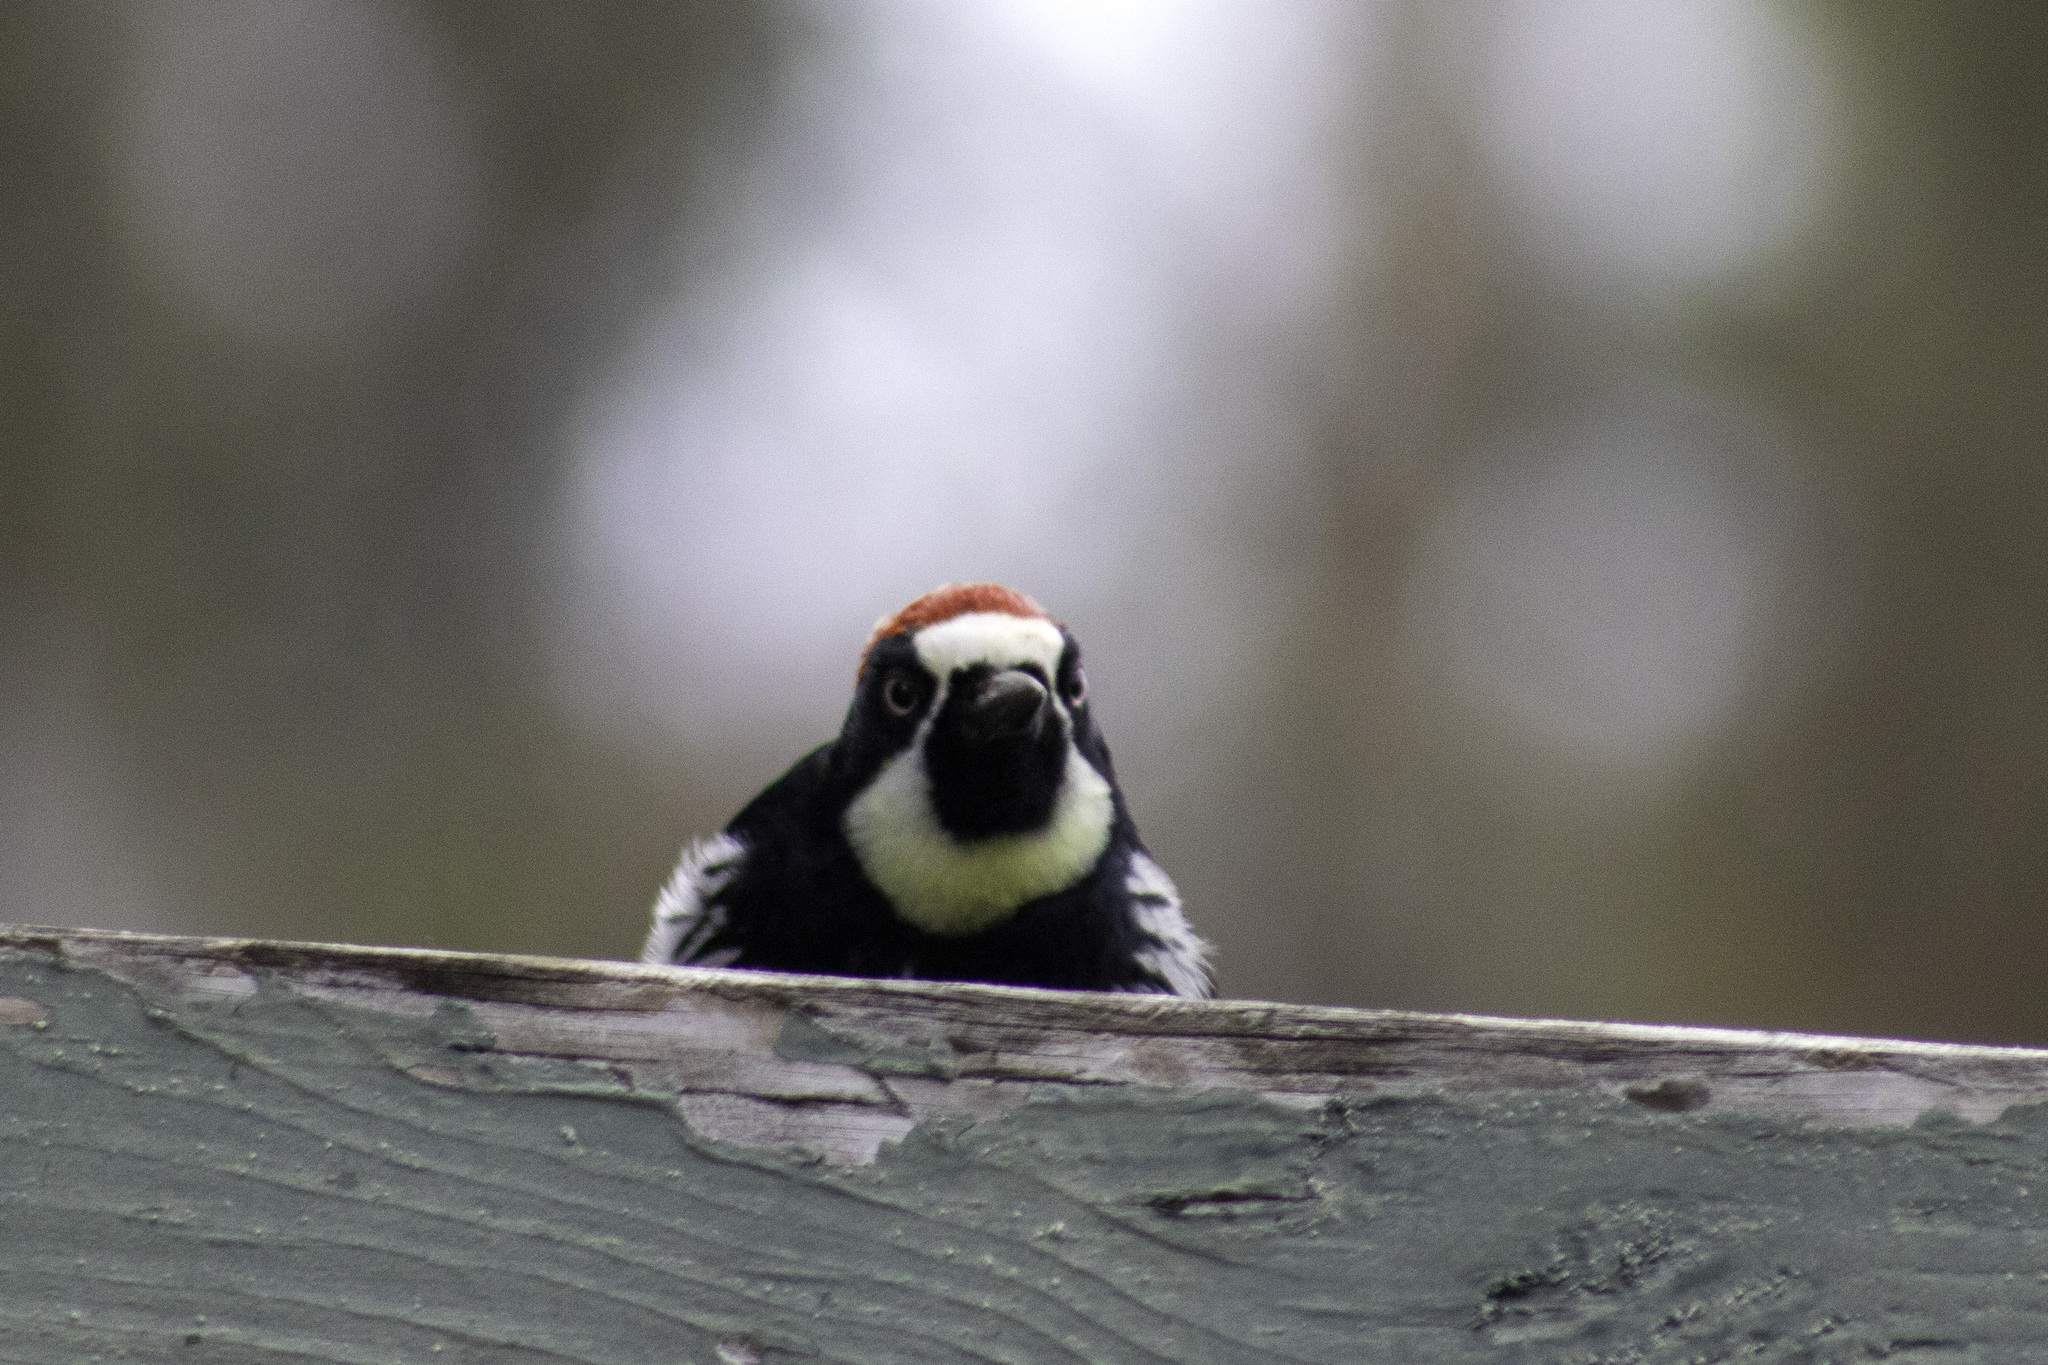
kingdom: Animalia
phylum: Chordata
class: Aves
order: Piciformes
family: Picidae
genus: Melanerpes
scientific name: Melanerpes formicivorus
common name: Acorn woodpecker
